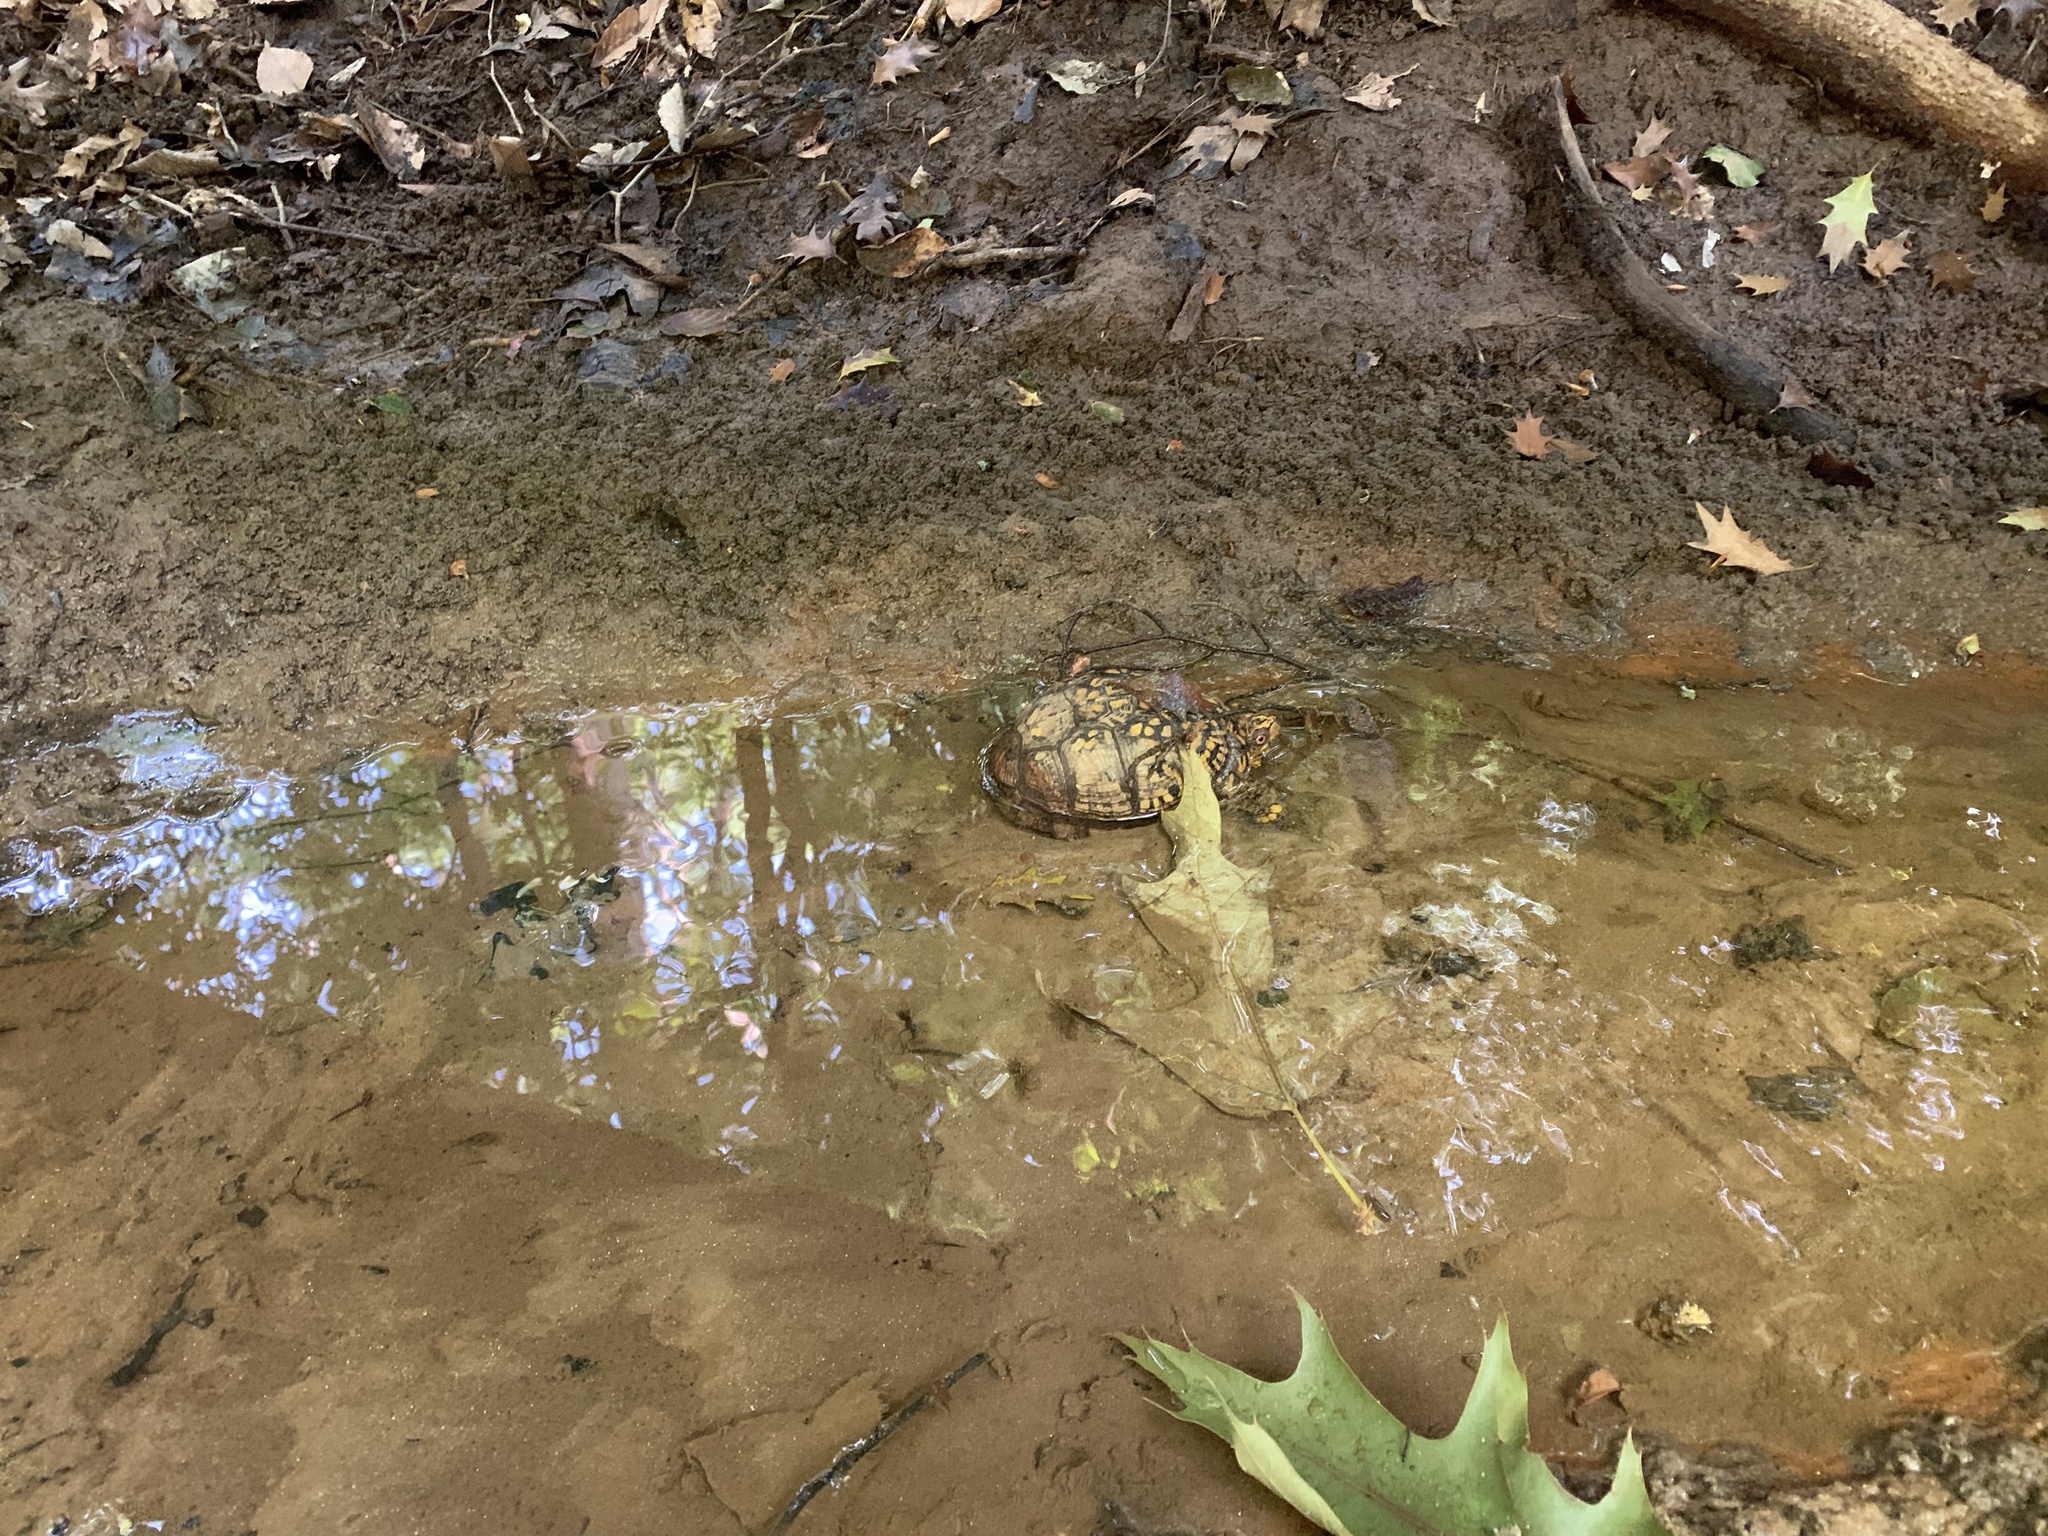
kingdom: Animalia
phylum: Chordata
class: Testudines
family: Emydidae
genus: Terrapene
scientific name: Terrapene carolina
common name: Common box turtle
